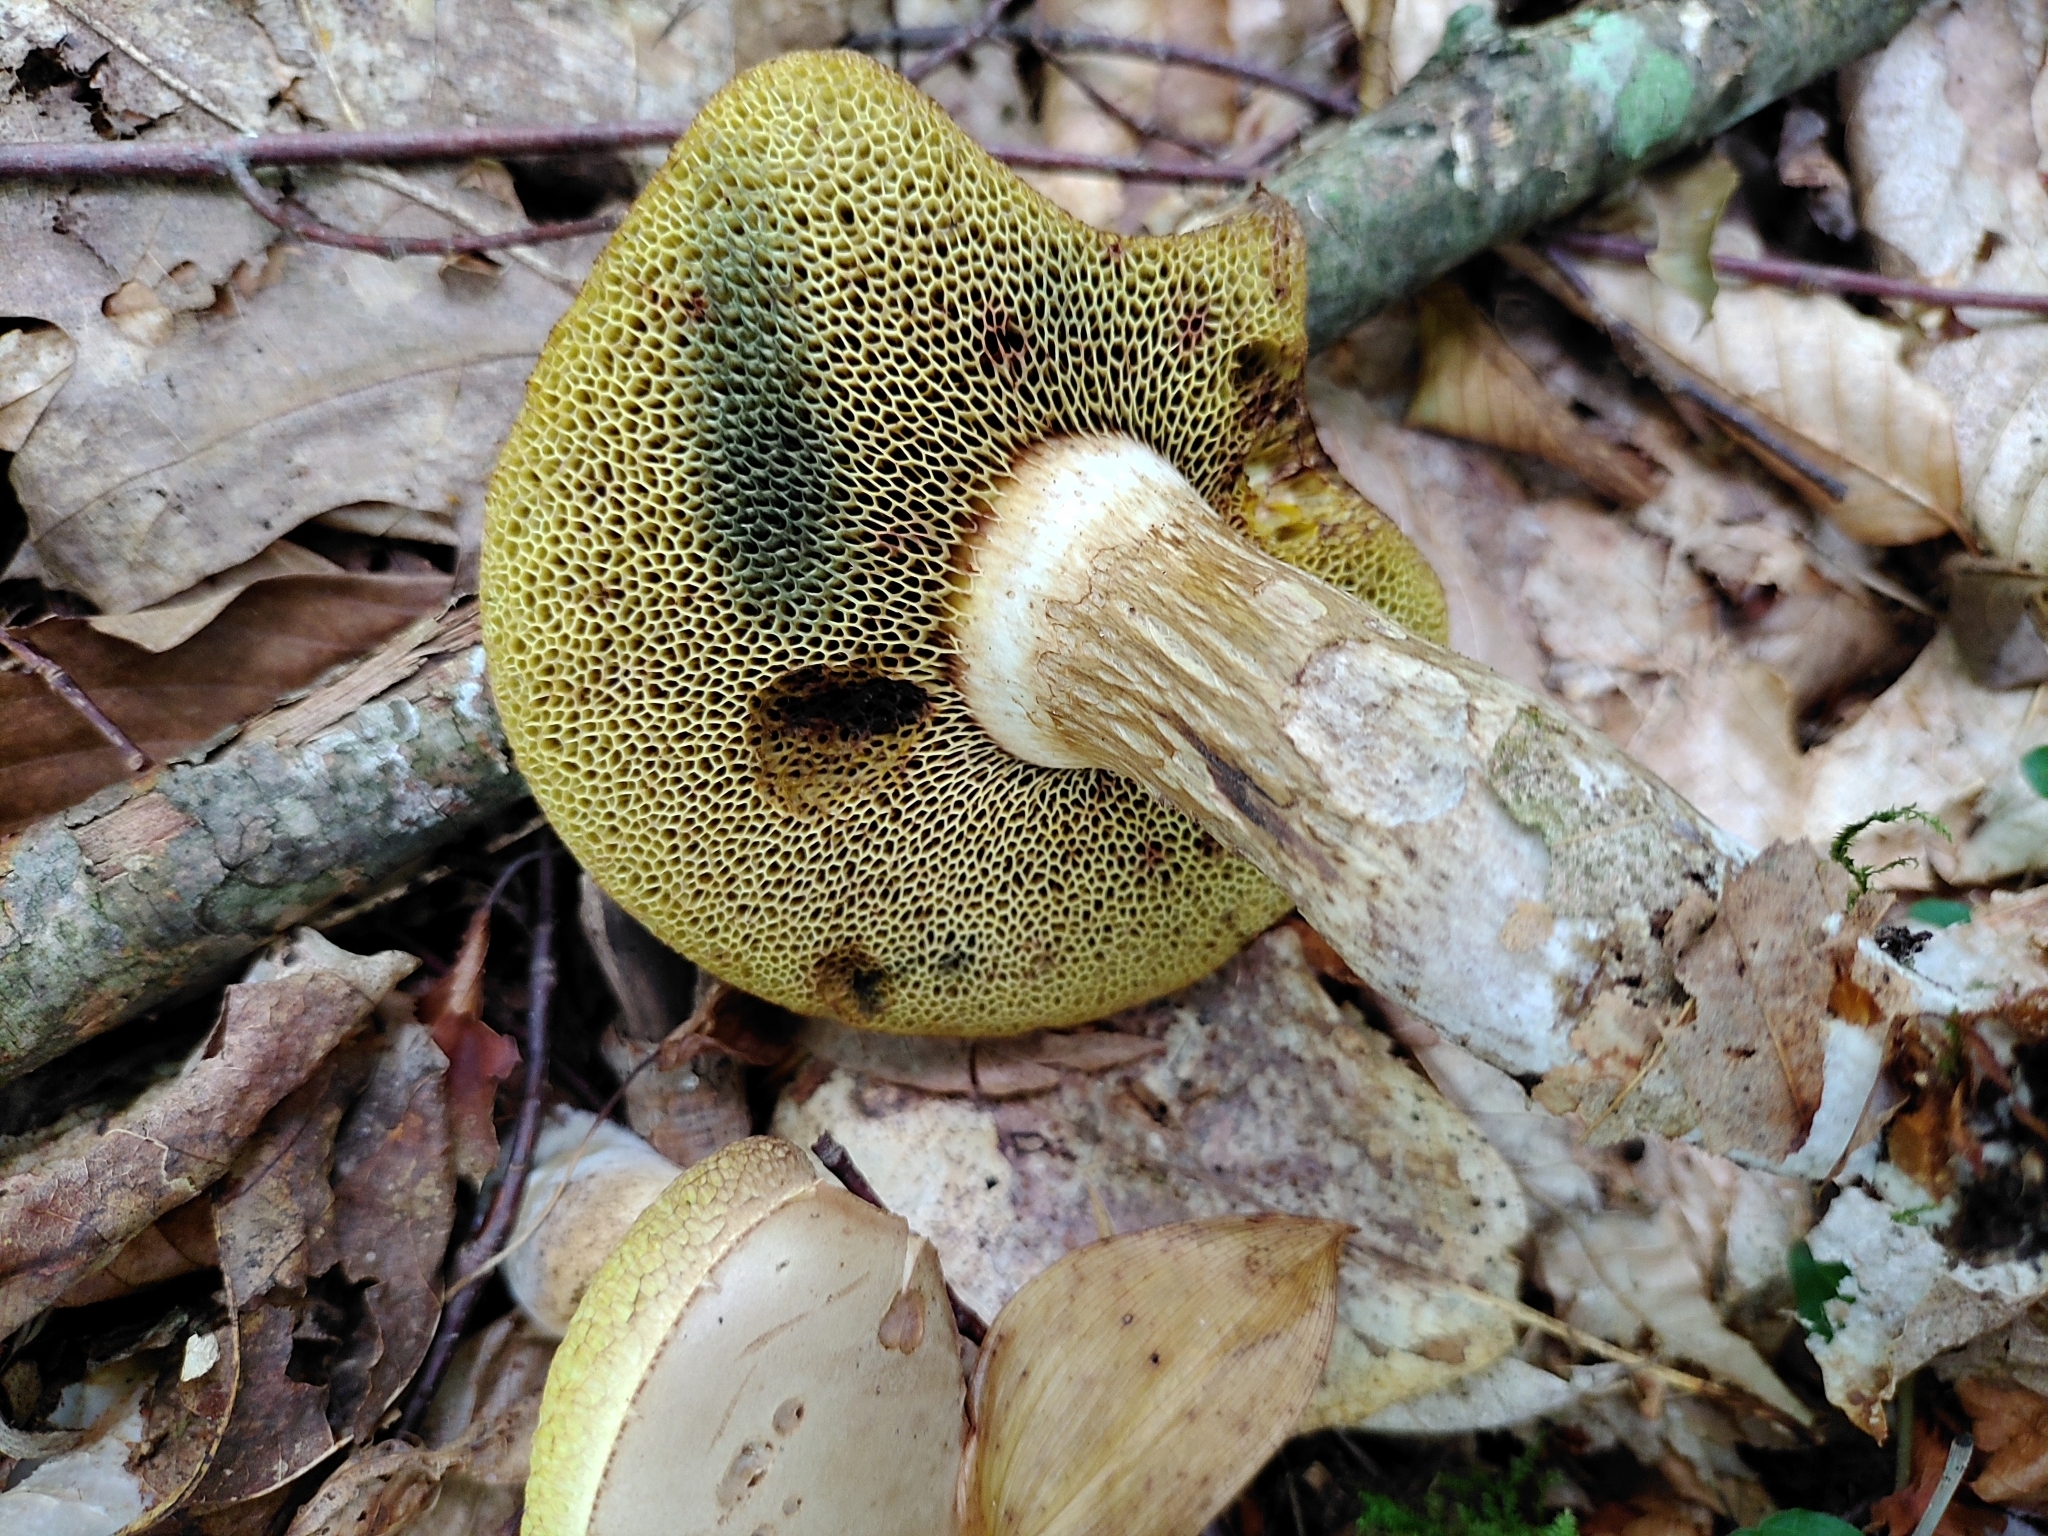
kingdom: Fungi
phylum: Basidiomycota
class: Agaricomycetes
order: Boletales
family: Boletaceae
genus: Imleria
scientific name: Imleria pallida
